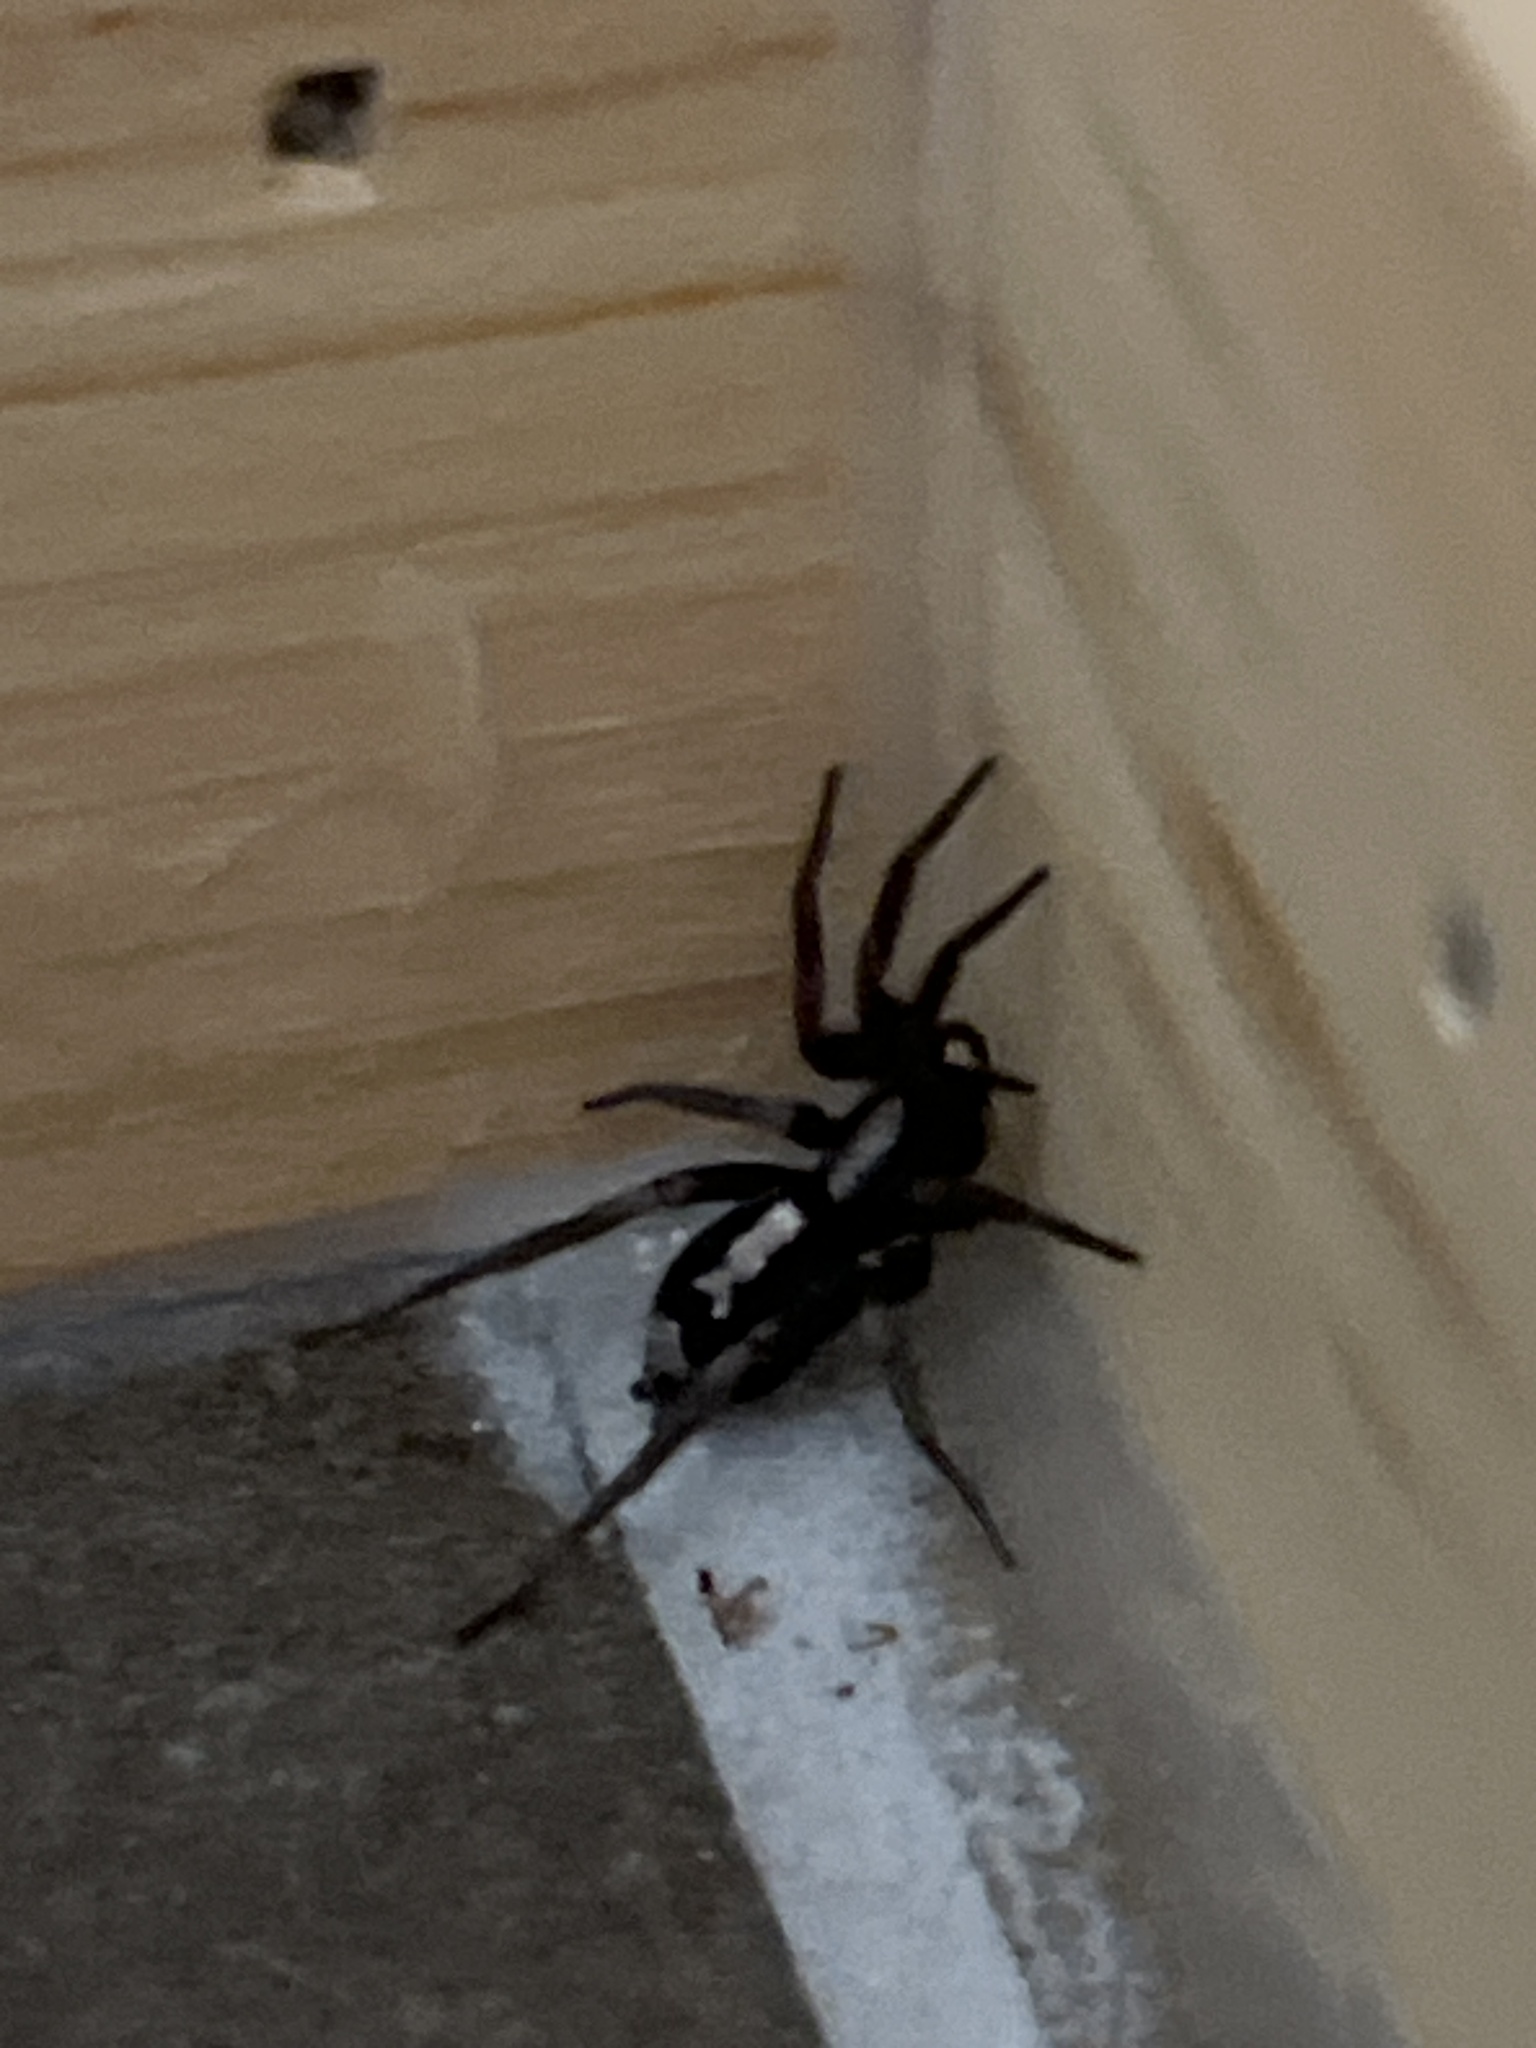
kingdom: Animalia
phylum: Arthropoda
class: Arachnida
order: Araneae
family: Gnaphosidae
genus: Herpyllus
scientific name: Herpyllus ecclesiasticus
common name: Eastern parson spider
